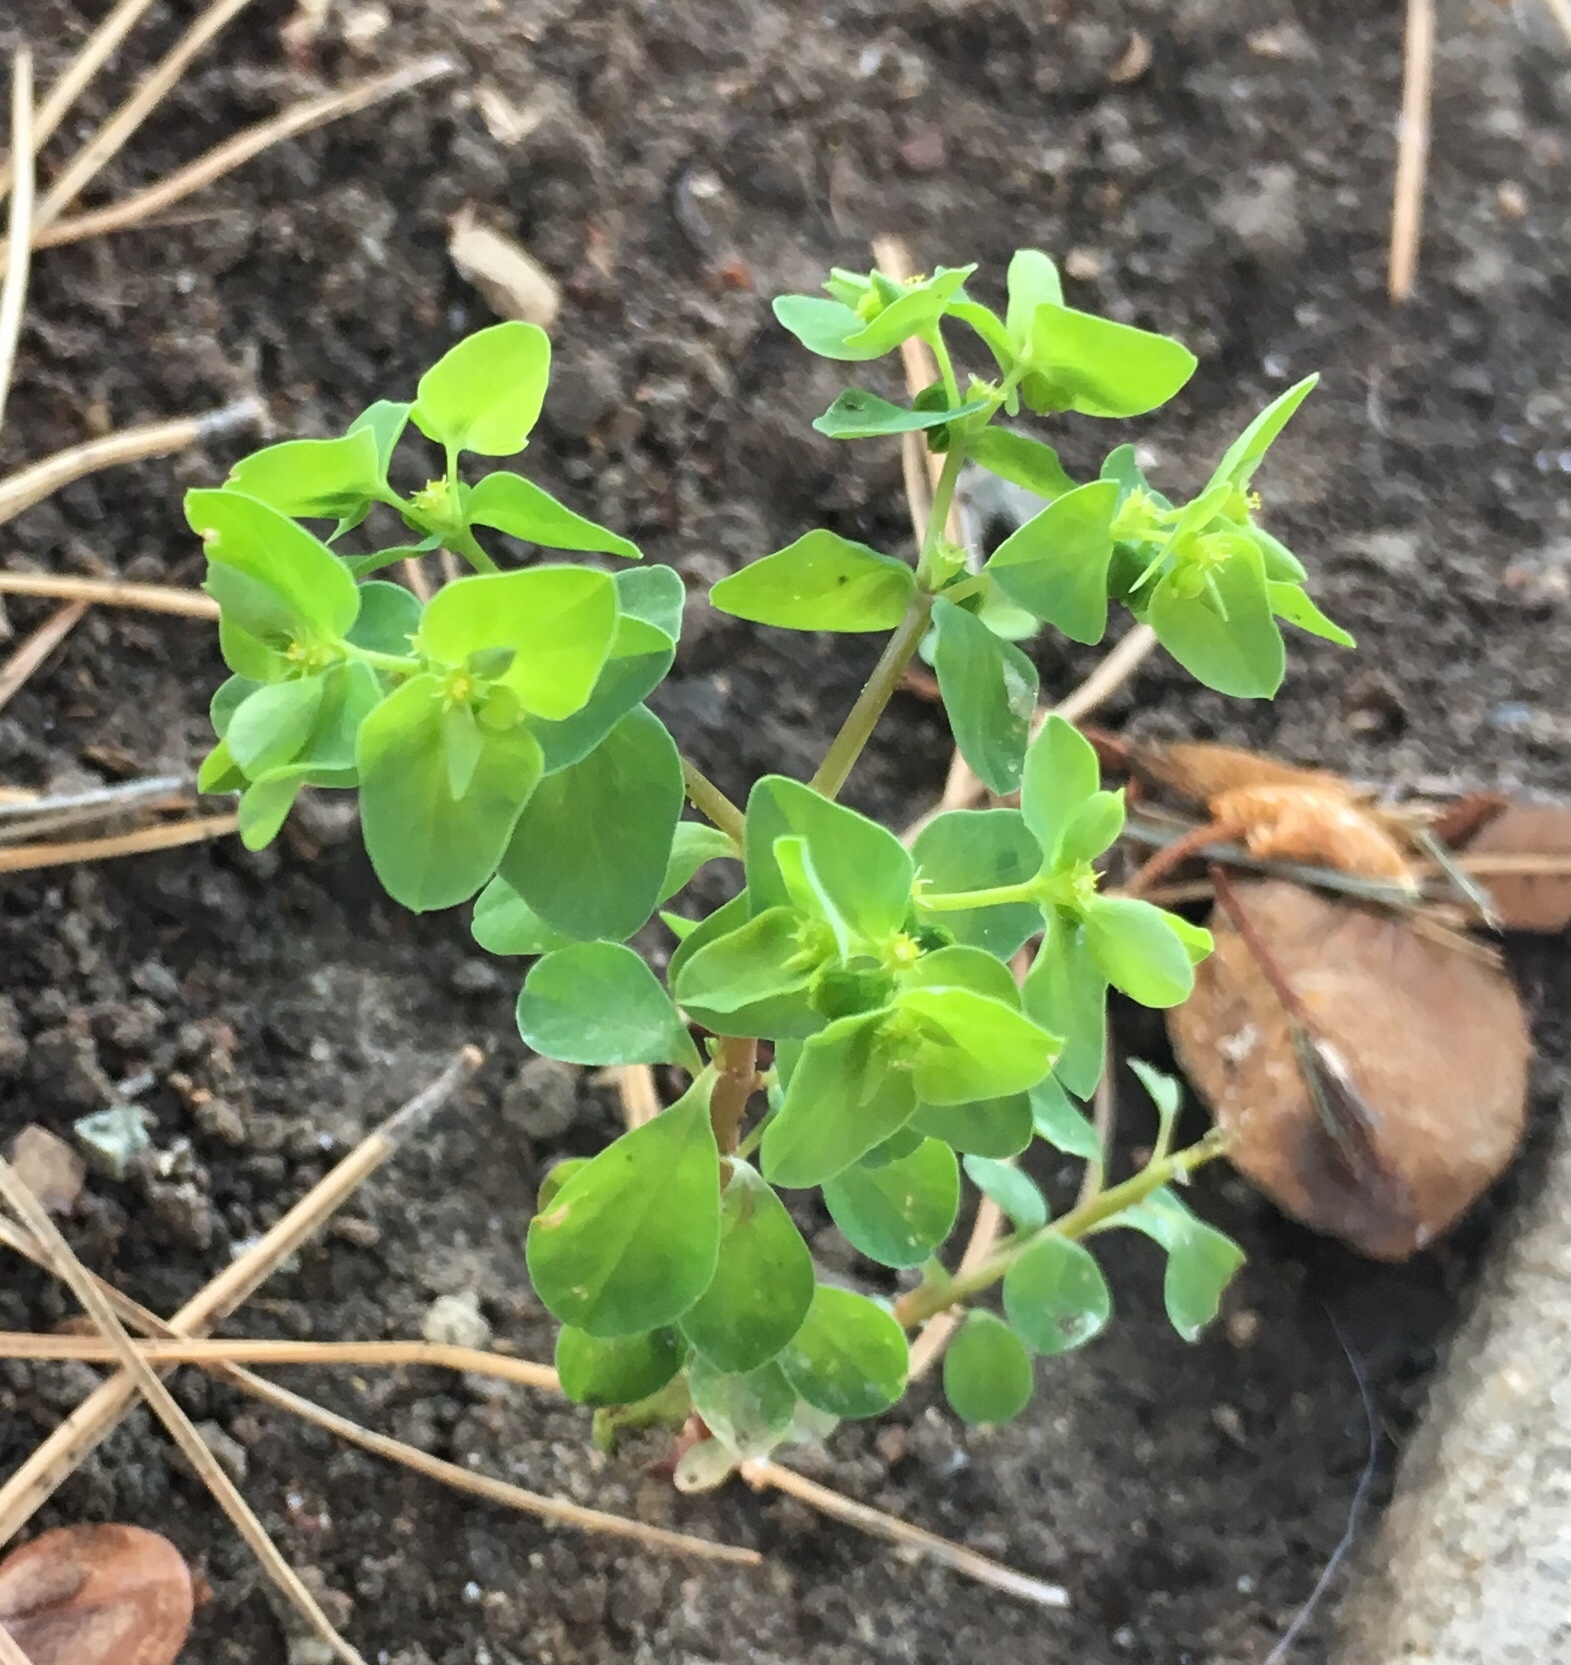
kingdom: Plantae
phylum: Tracheophyta
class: Magnoliopsida
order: Malpighiales
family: Euphorbiaceae
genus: Euphorbia
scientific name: Euphorbia peplus
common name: Petty spurge
